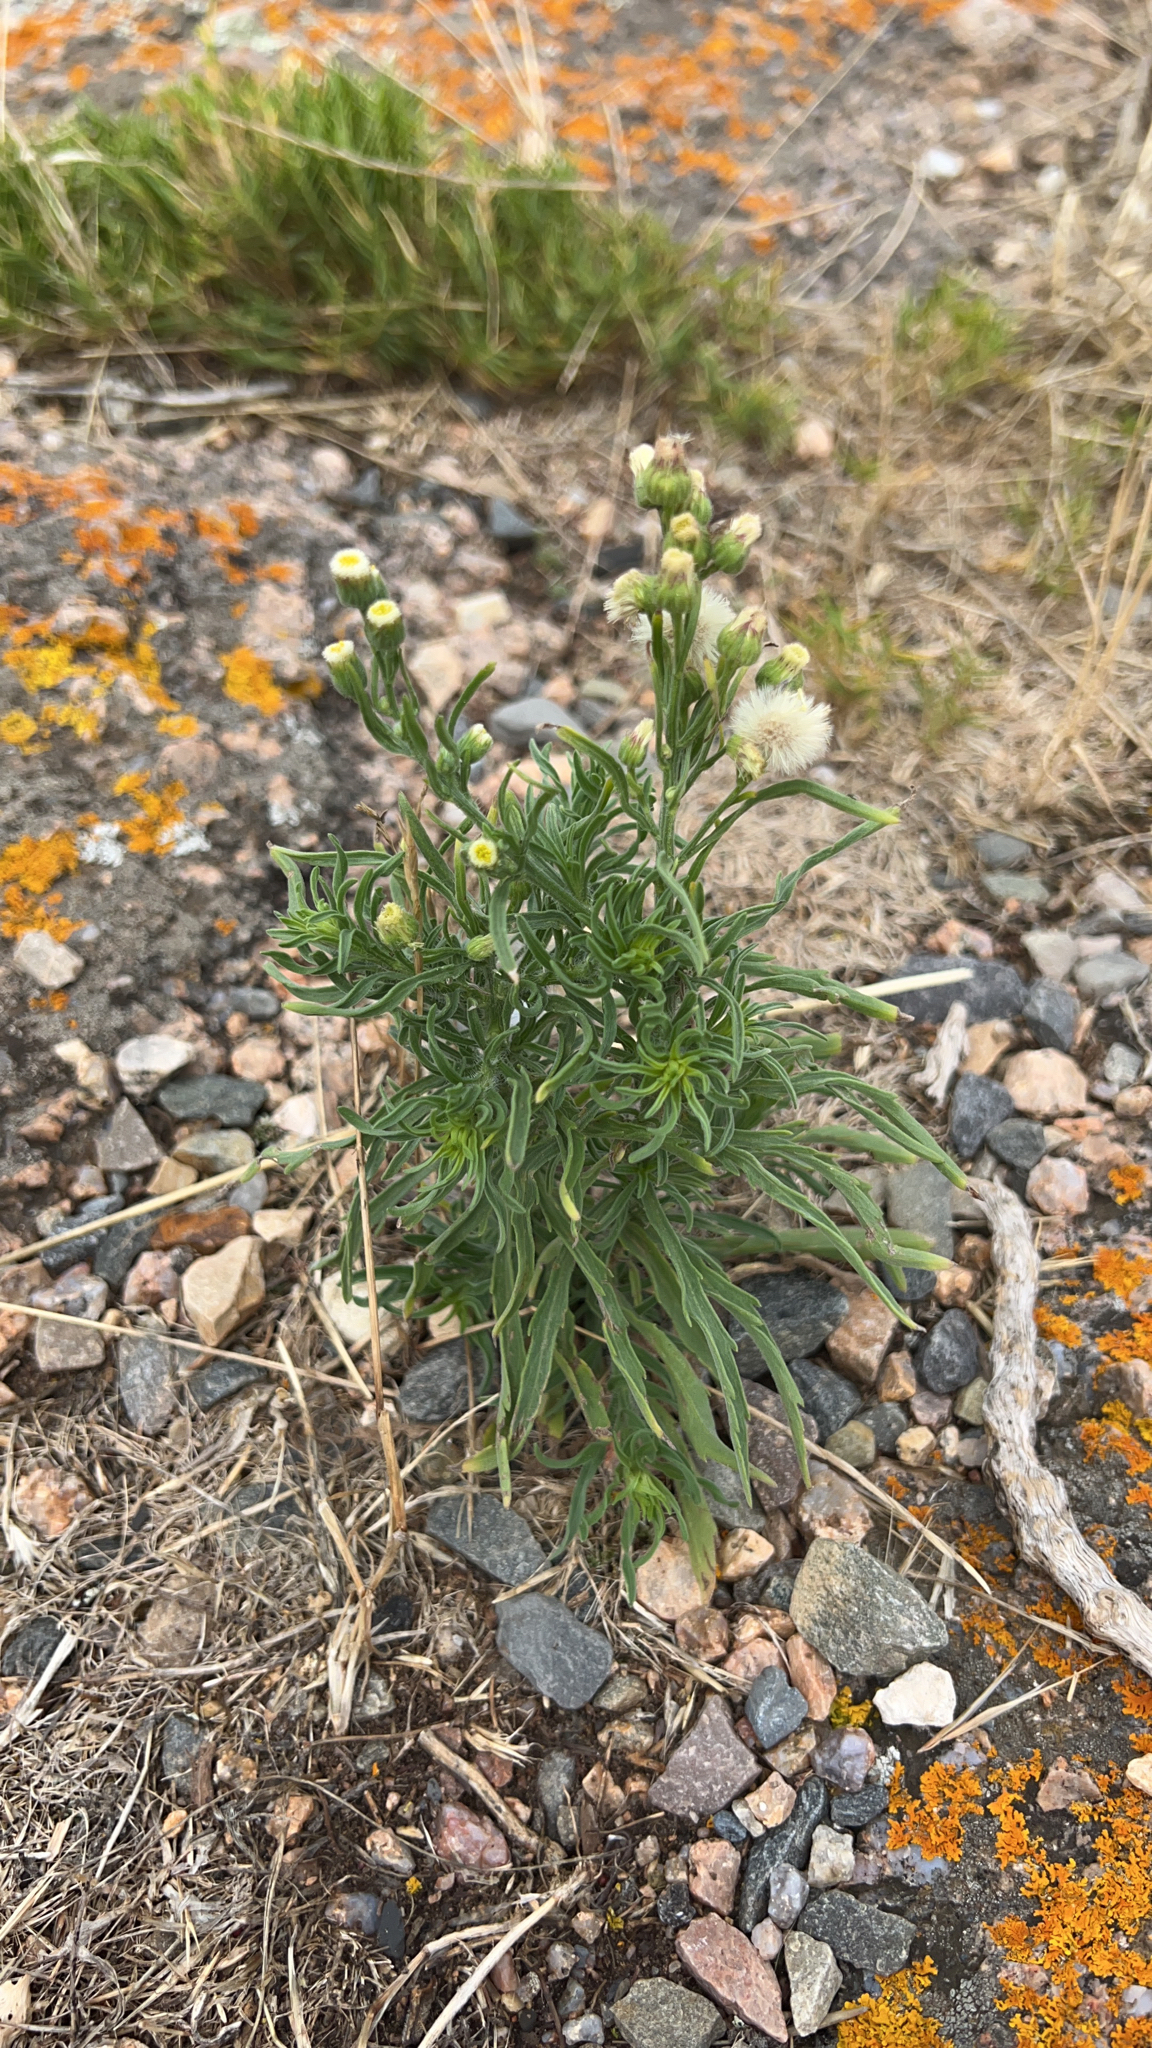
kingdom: Plantae
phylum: Tracheophyta
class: Magnoliopsida
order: Asterales
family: Asteraceae
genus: Erigeron
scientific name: Erigeron bonariensis
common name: Argentine fleabane
